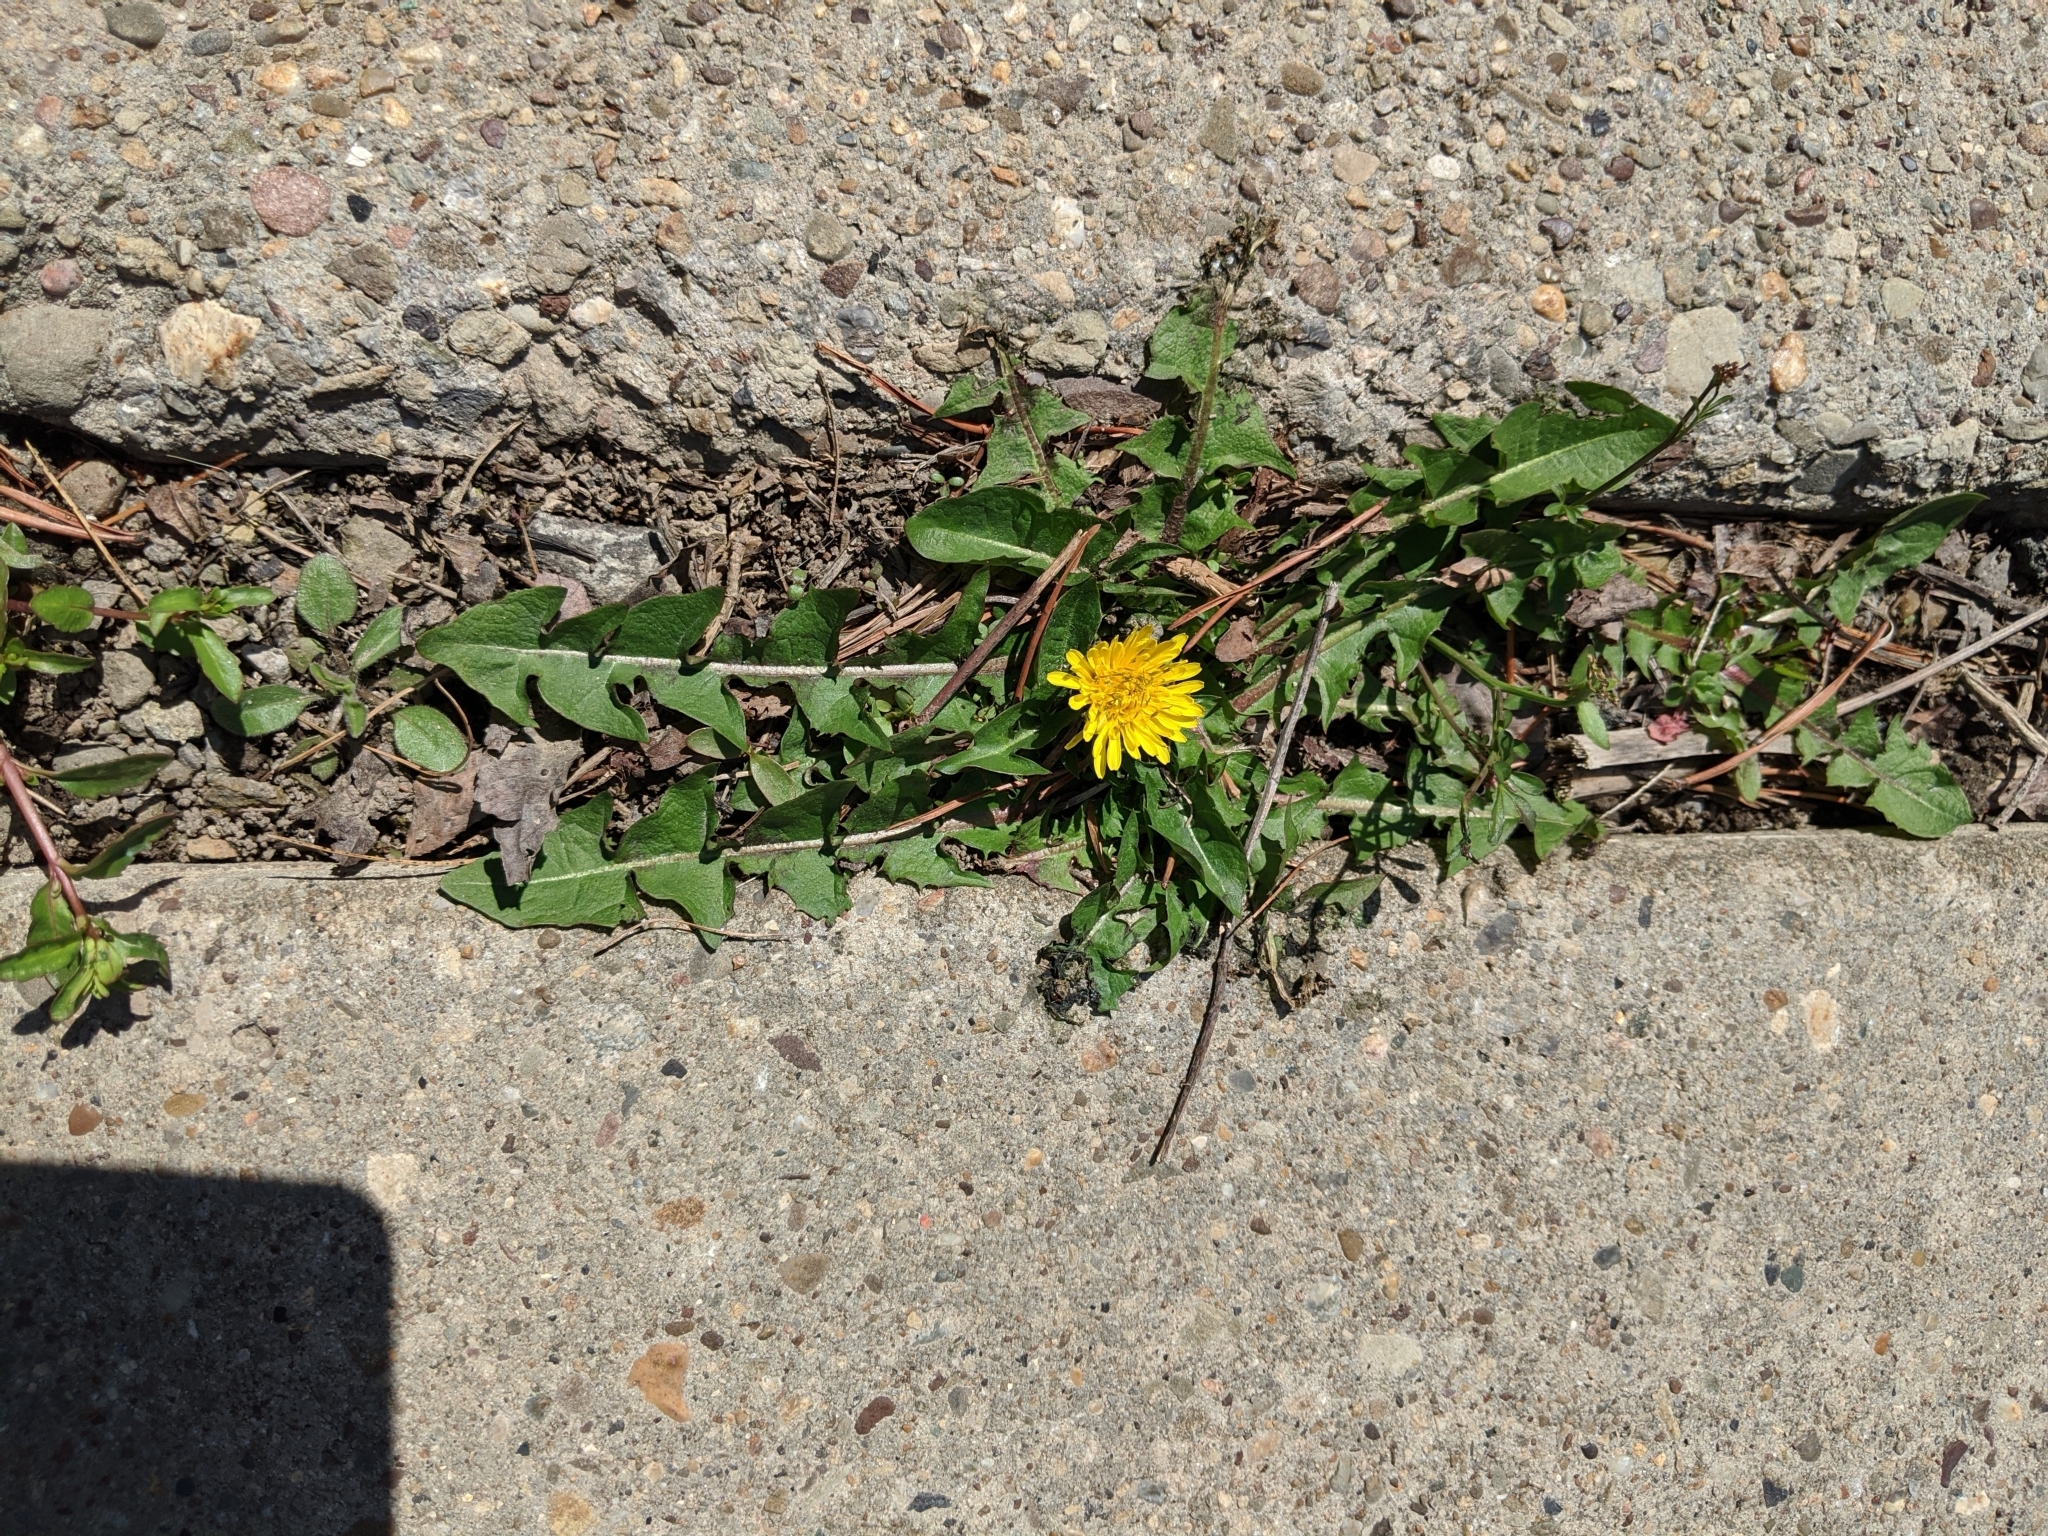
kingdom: Plantae
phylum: Tracheophyta
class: Magnoliopsida
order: Asterales
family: Asteraceae
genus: Taraxacum
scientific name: Taraxacum officinale
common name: Common dandelion
